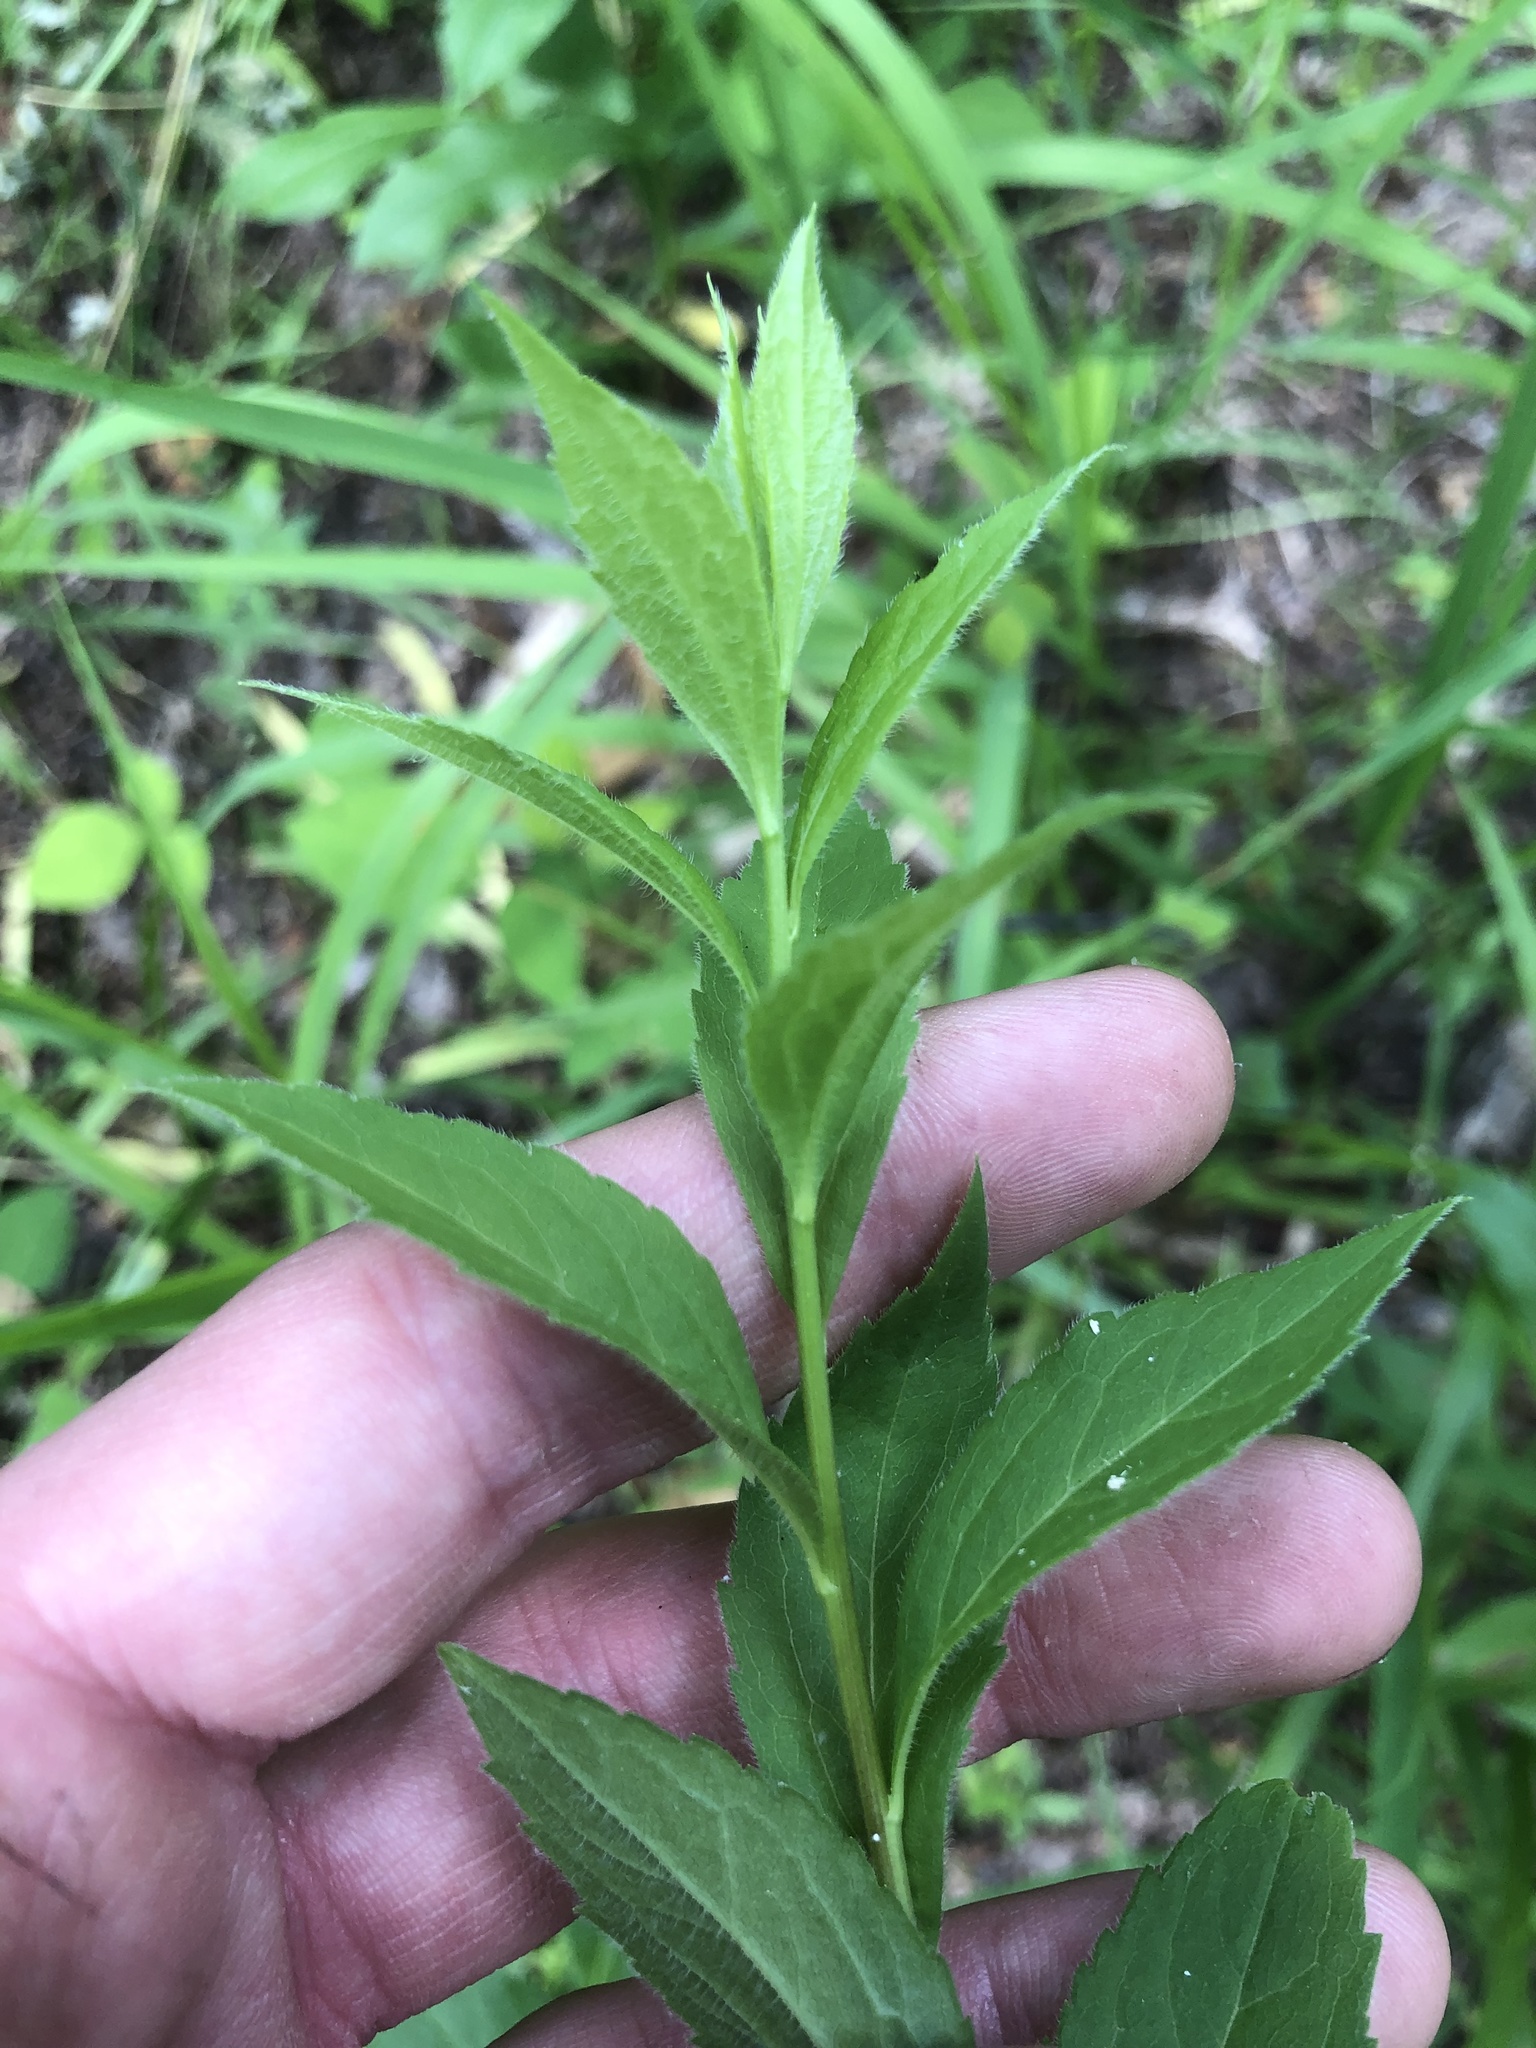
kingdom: Plantae
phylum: Tracheophyta
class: Magnoliopsida
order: Asterales
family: Asteraceae
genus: Solidago
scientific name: Solidago ulmifolia
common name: Elm-leaf goldenrod
